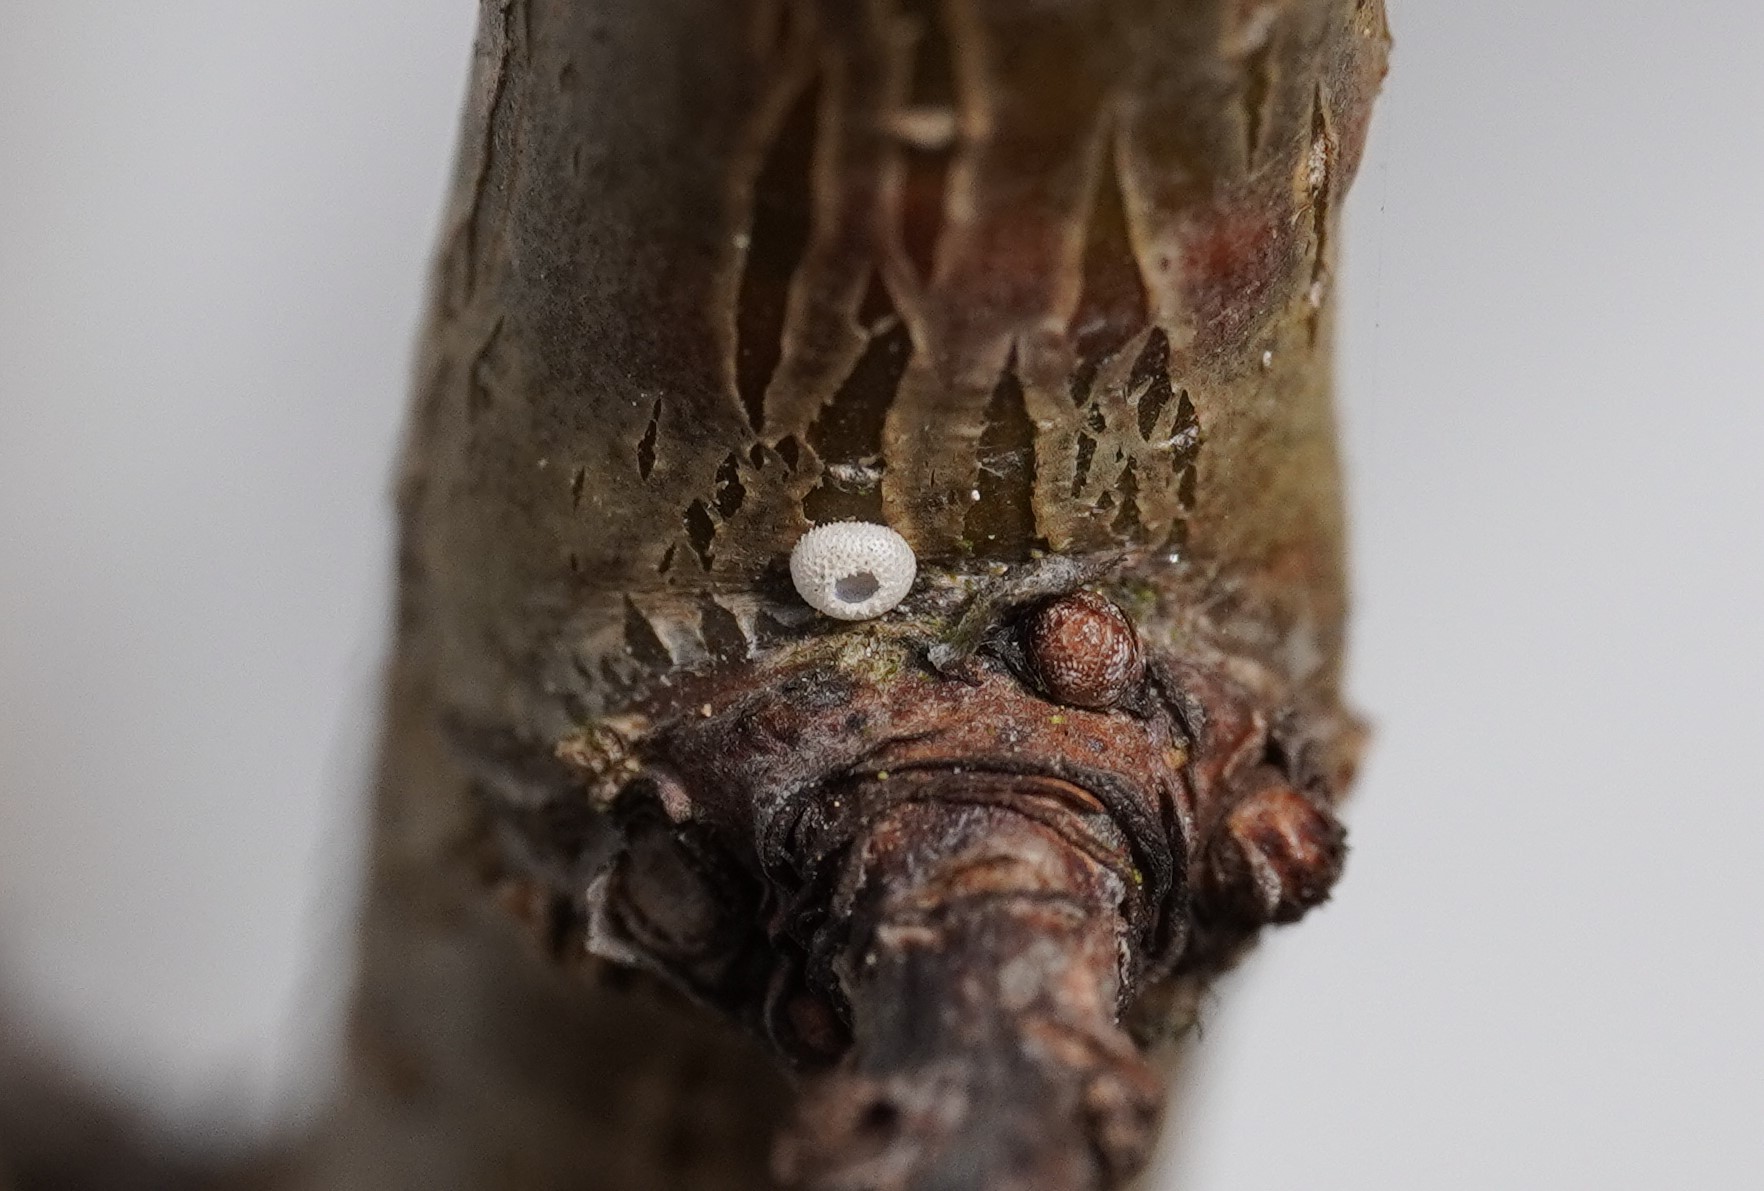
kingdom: Animalia
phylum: Arthropoda
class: Insecta
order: Lepidoptera
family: Lycaenidae
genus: Thecla
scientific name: Thecla betulae
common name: Brown hairstreak
